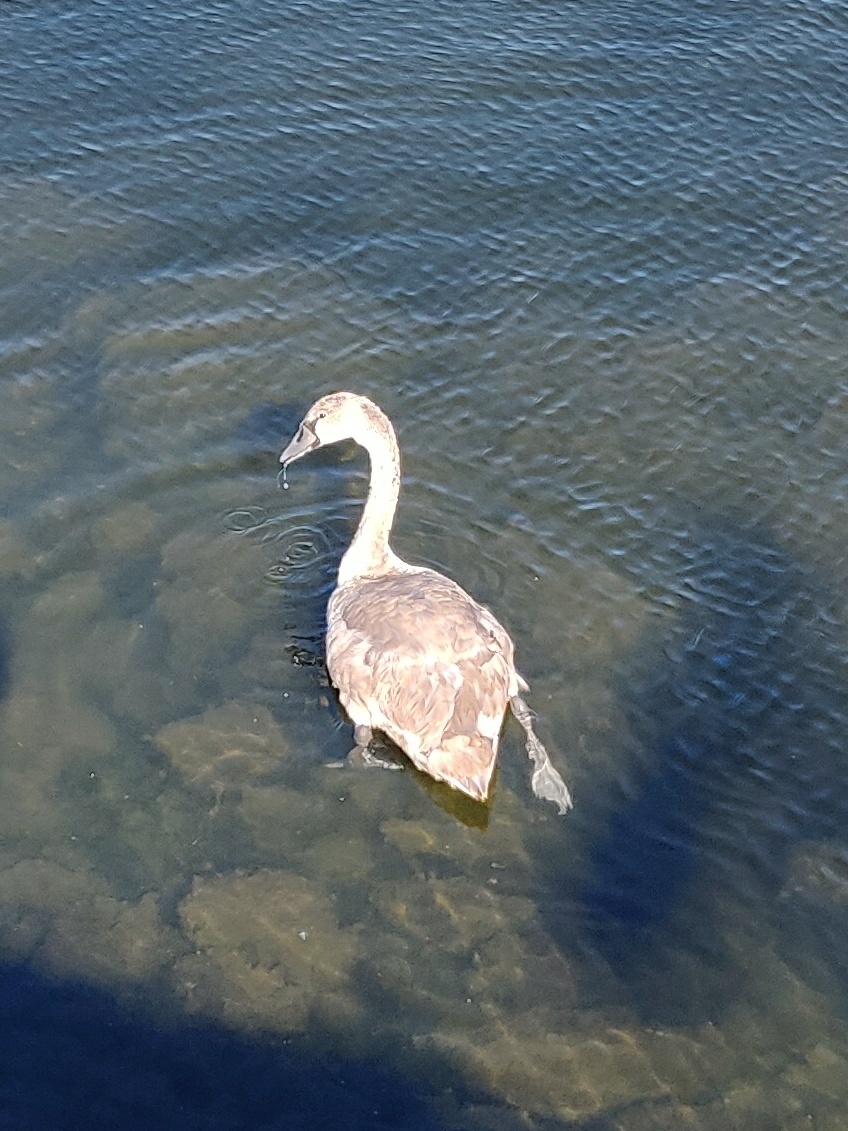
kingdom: Animalia
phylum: Chordata
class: Aves
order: Anseriformes
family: Anatidae
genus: Cygnus
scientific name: Cygnus olor
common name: Mute swan
